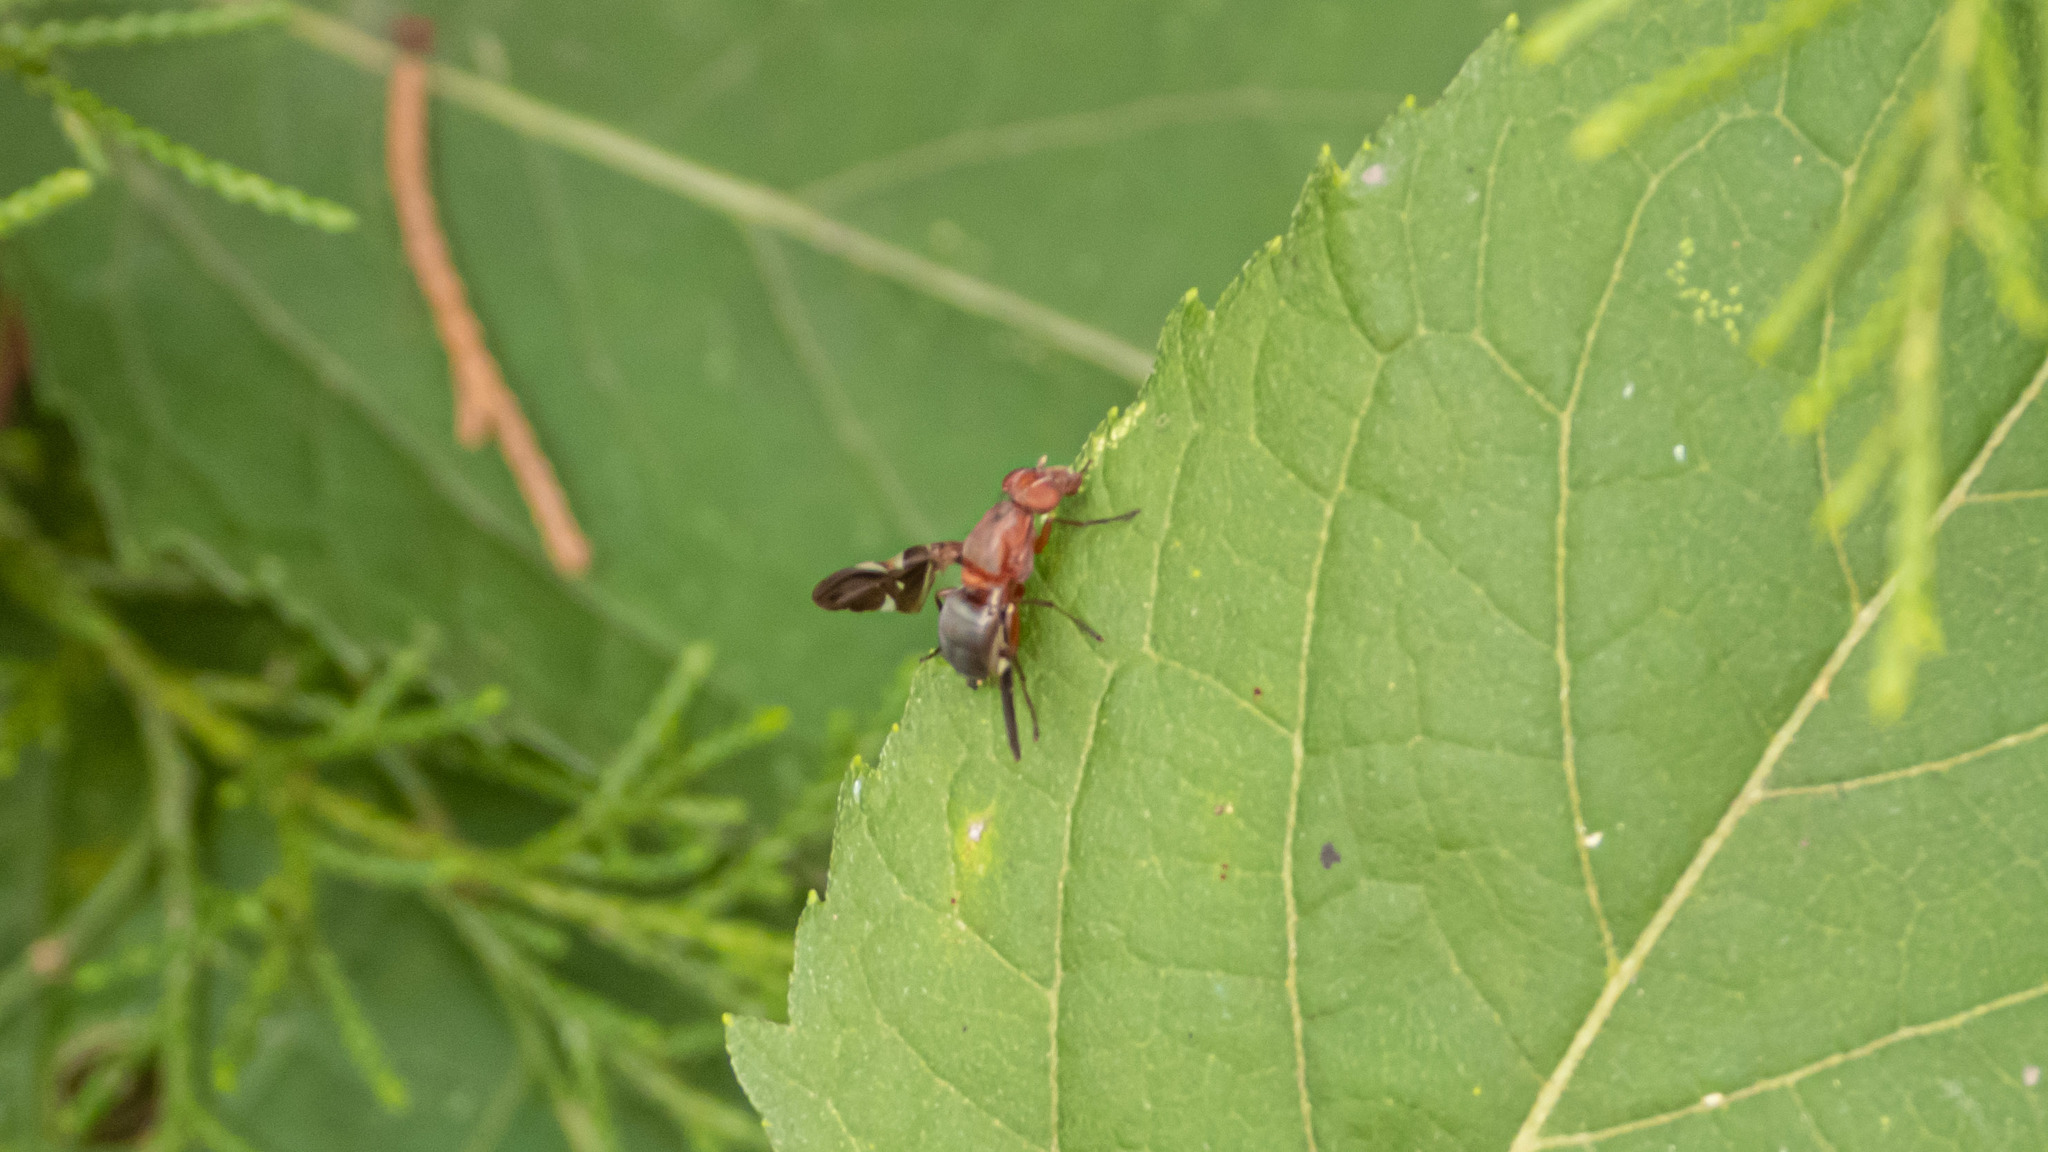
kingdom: Animalia
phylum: Arthropoda
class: Insecta
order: Diptera
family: Ulidiidae
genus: Delphinia
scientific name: Delphinia picta
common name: Common picture-winged fly
